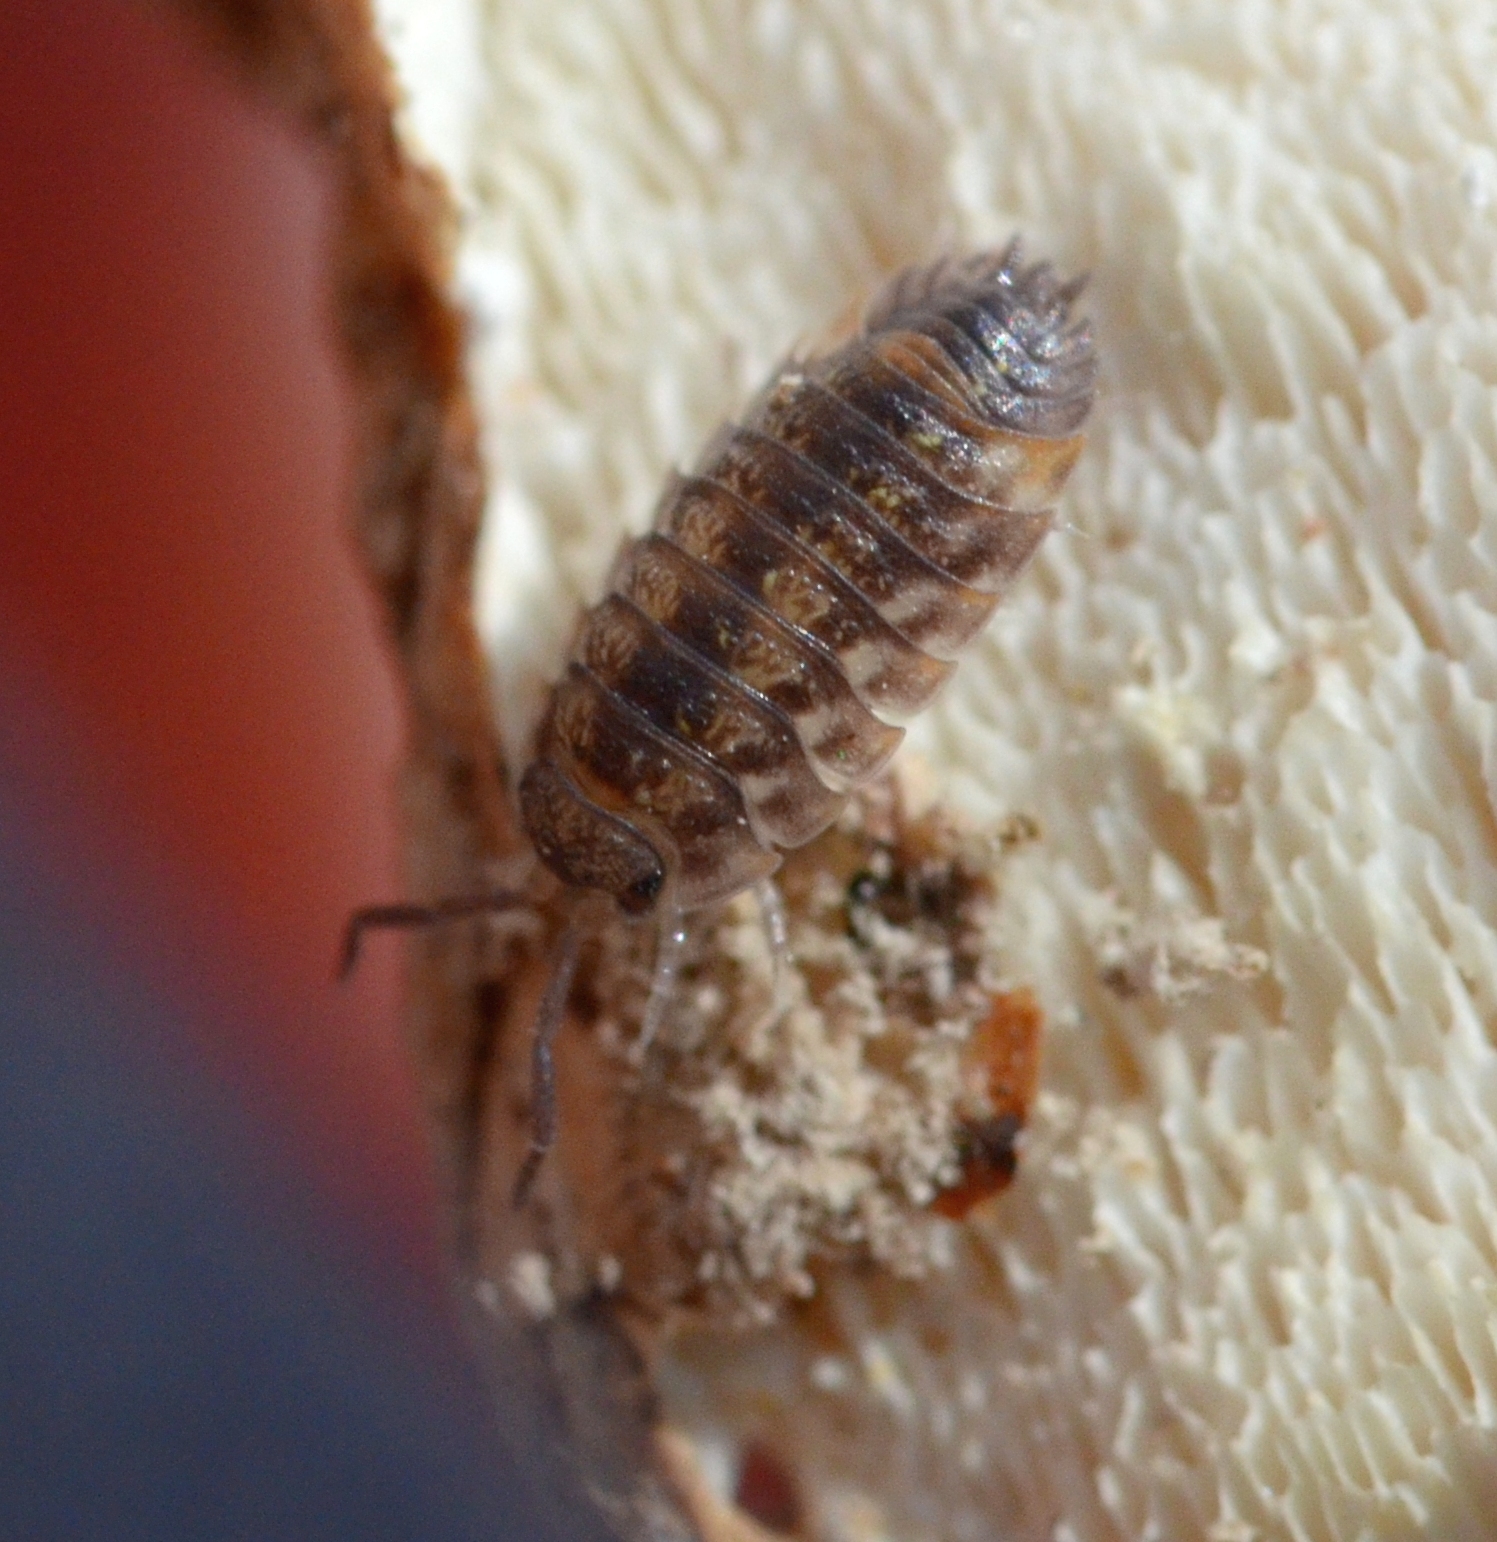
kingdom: Animalia
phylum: Arthropoda
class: Malacostraca
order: Isopoda
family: Oniscidae
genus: Oniscus
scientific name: Oniscus asellus
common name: Common shiny woodlouse
